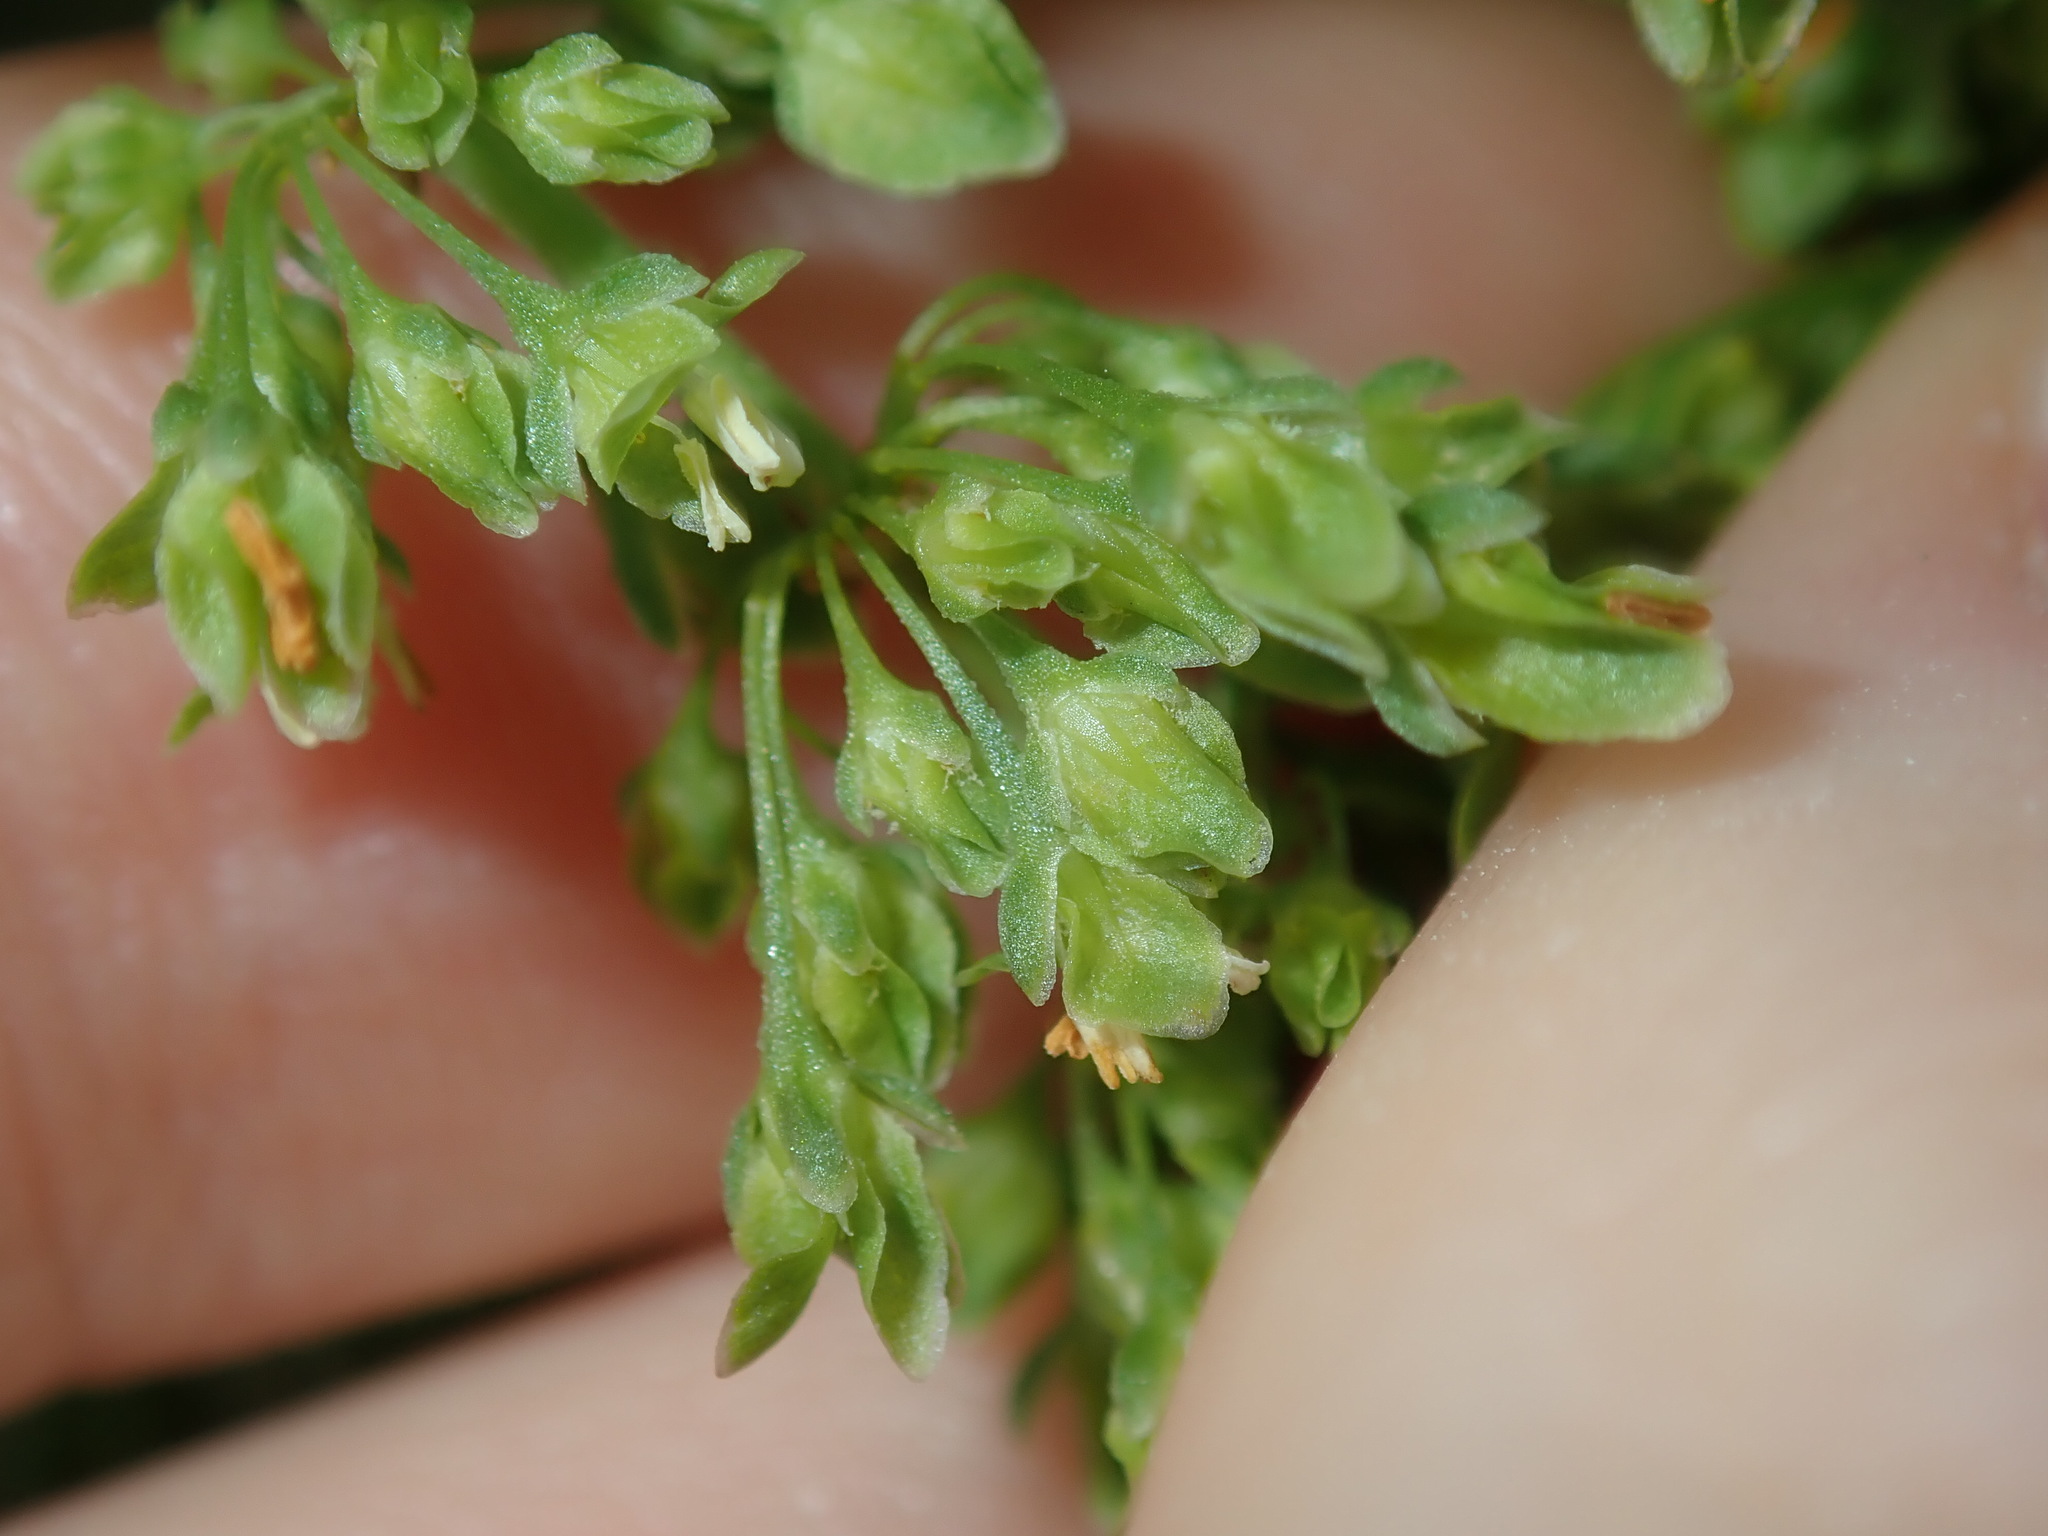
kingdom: Plantae
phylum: Tracheophyta
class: Magnoliopsida
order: Caryophyllales
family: Polygonaceae
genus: Rumex
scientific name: Rumex crispus
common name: Curled dock
